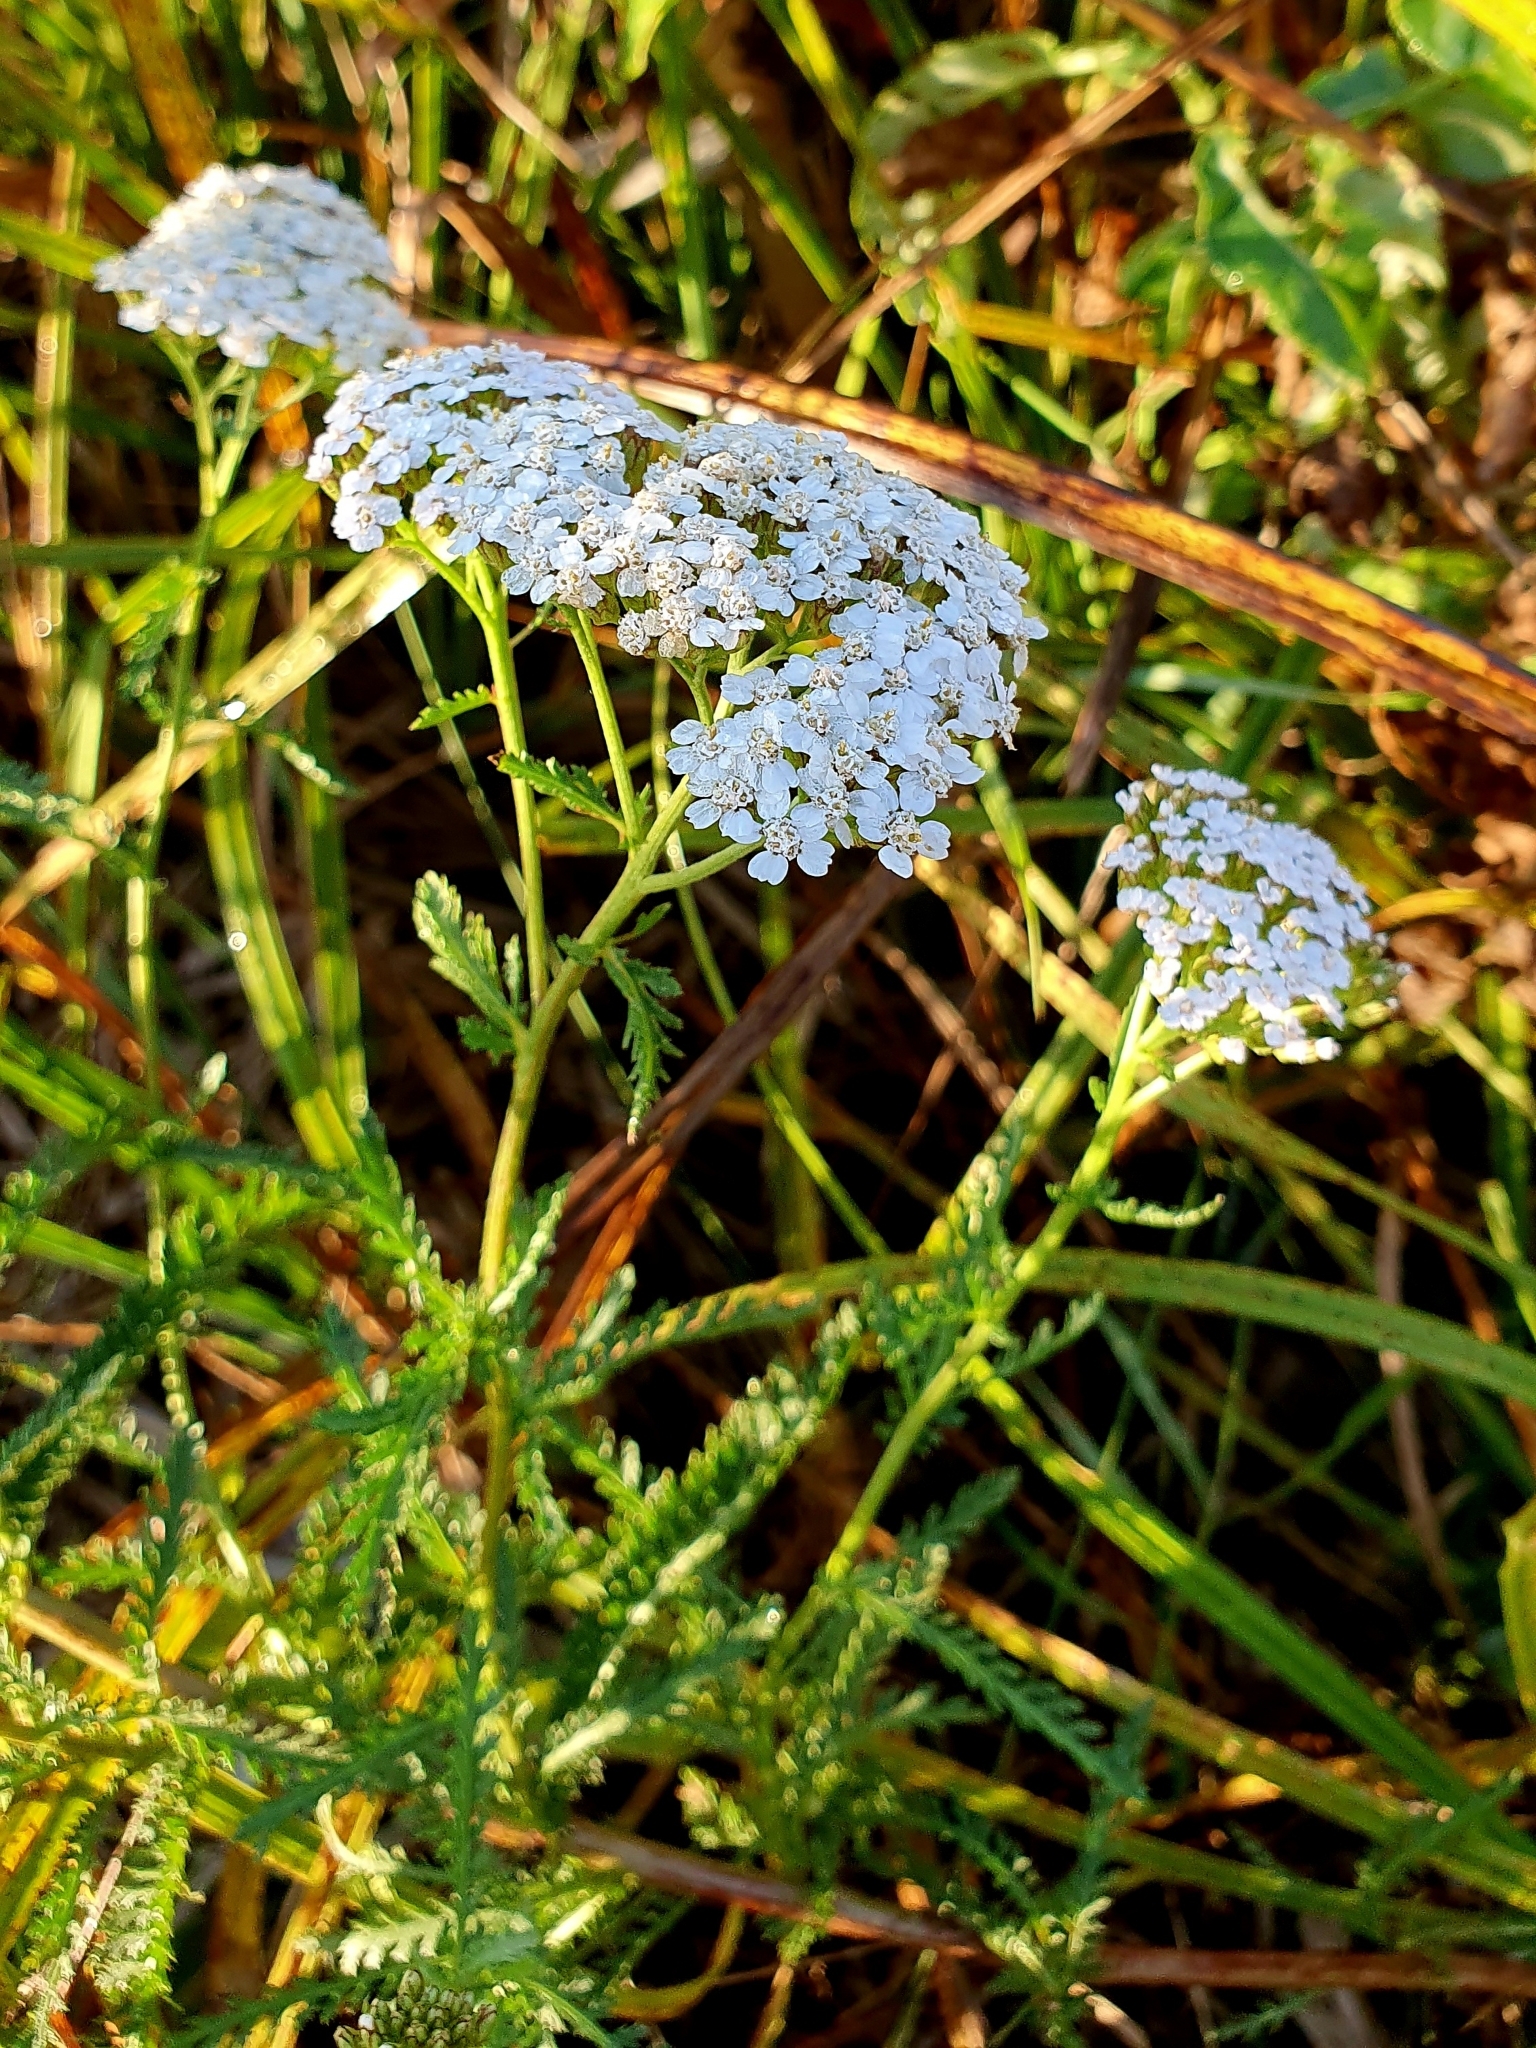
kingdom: Plantae
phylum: Tracheophyta
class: Magnoliopsida
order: Asterales
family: Asteraceae
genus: Achillea
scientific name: Achillea millefolium
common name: Yarrow
